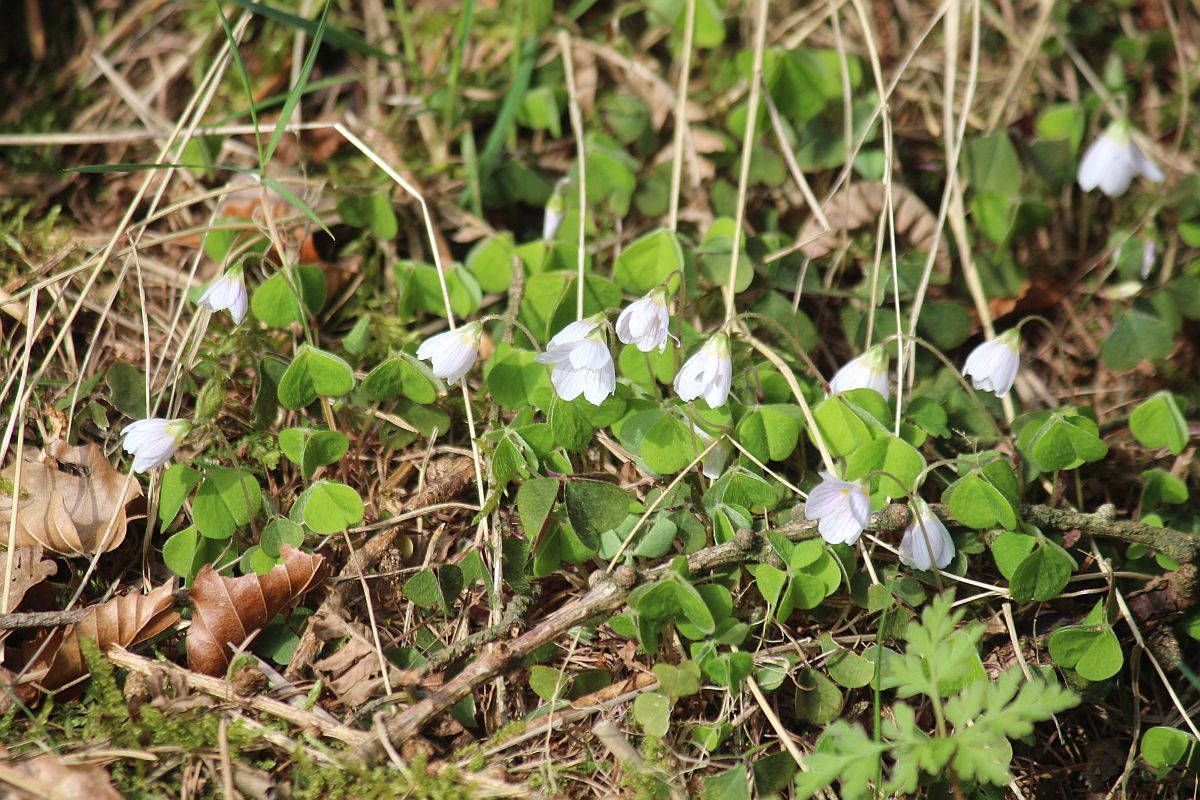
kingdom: Plantae
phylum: Tracheophyta
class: Magnoliopsida
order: Oxalidales
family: Oxalidaceae
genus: Oxalis
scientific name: Oxalis acetosella
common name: Wood-sorrel
